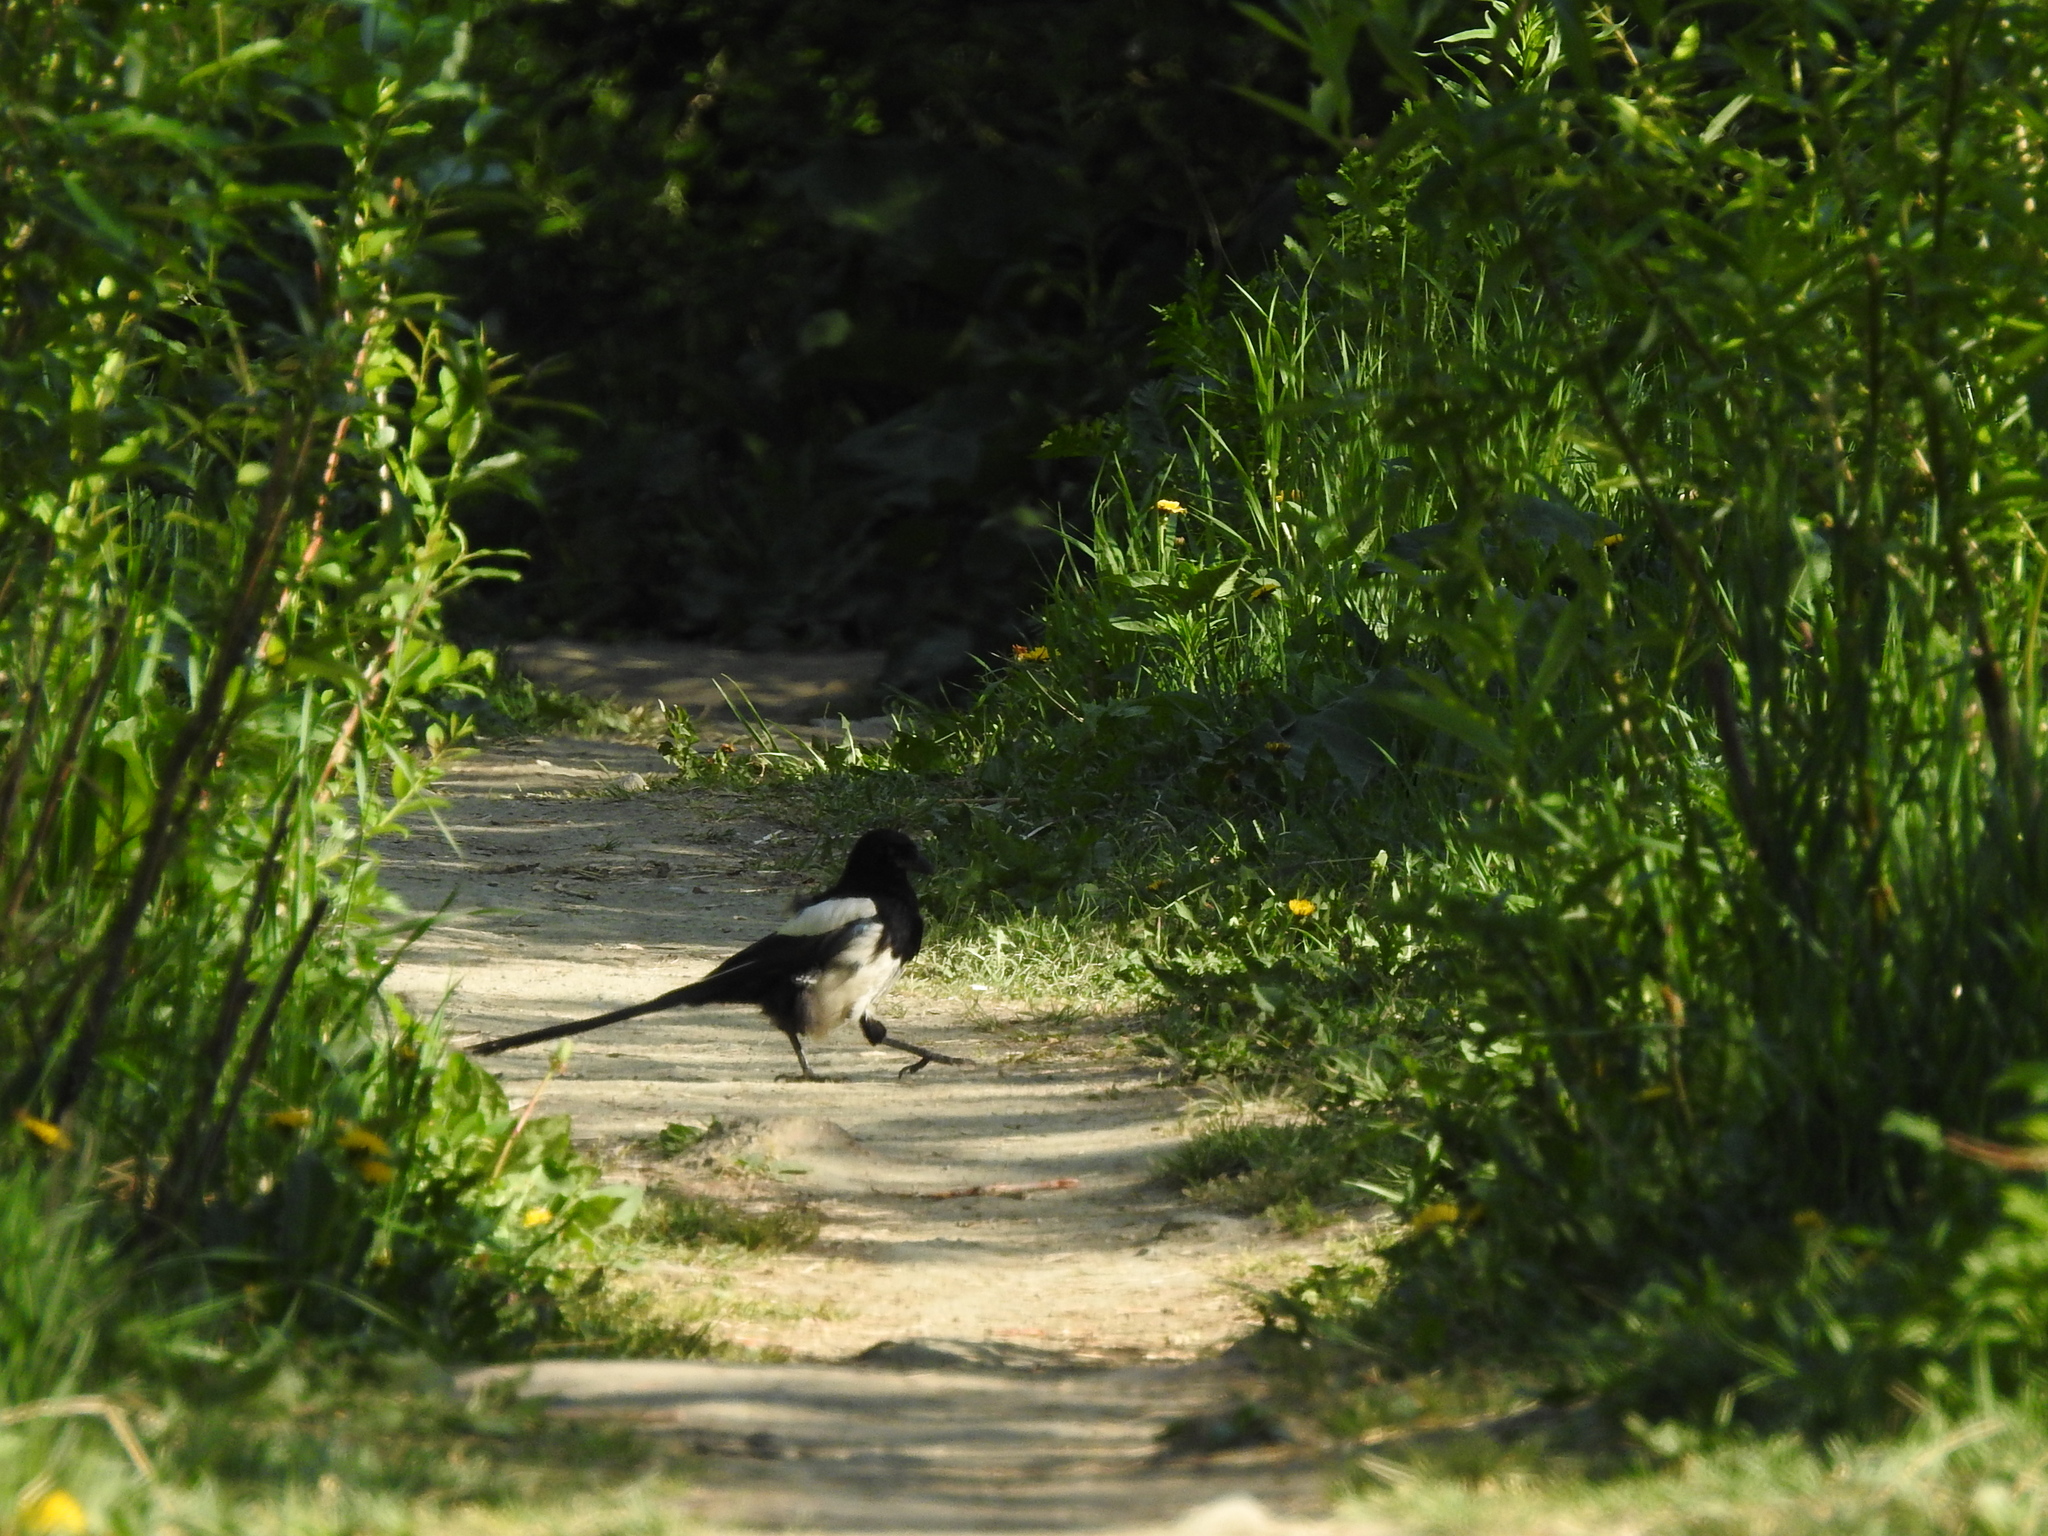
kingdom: Animalia
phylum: Chordata
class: Aves
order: Passeriformes
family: Corvidae
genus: Pica
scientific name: Pica pica
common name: Eurasian magpie
